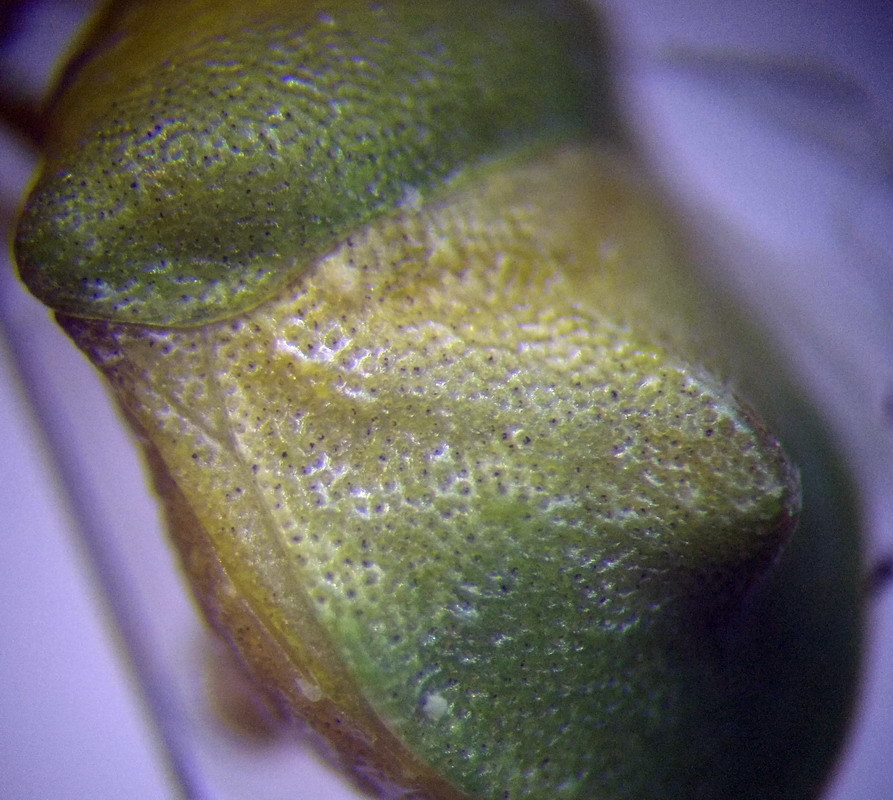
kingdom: Animalia
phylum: Arthropoda
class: Insecta
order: Hemiptera
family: Pentatomidae
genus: Tarisa
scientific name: Tarisa elevata
